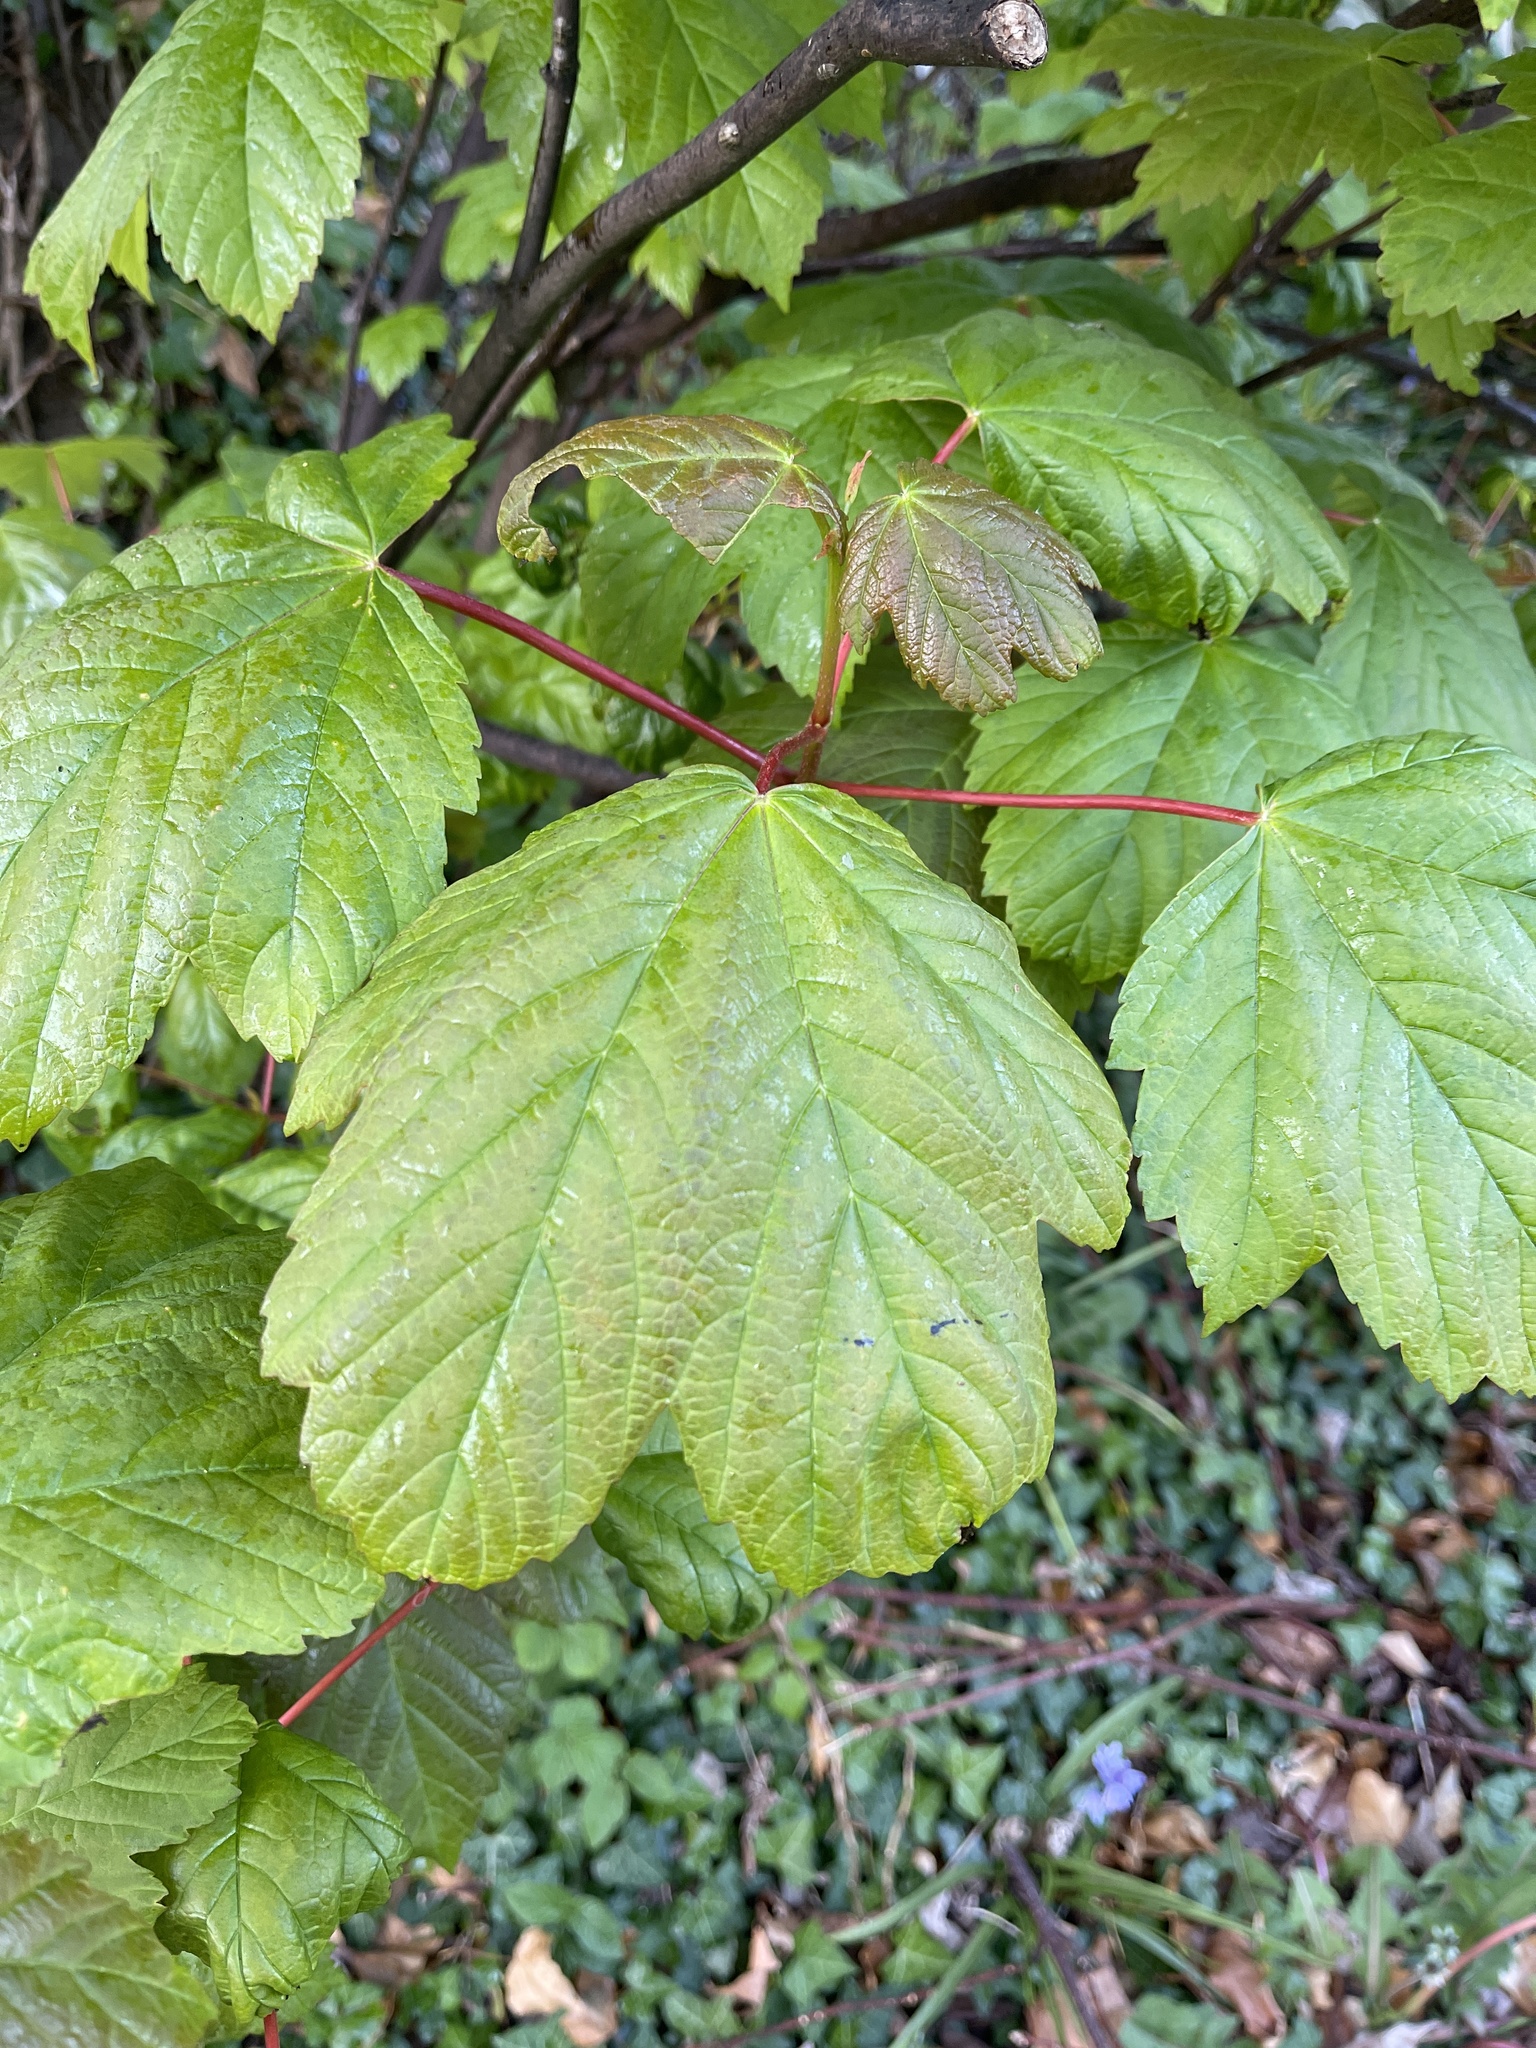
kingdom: Plantae
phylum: Tracheophyta
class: Magnoliopsida
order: Sapindales
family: Sapindaceae
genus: Acer
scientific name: Acer pseudoplatanus
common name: Sycamore
